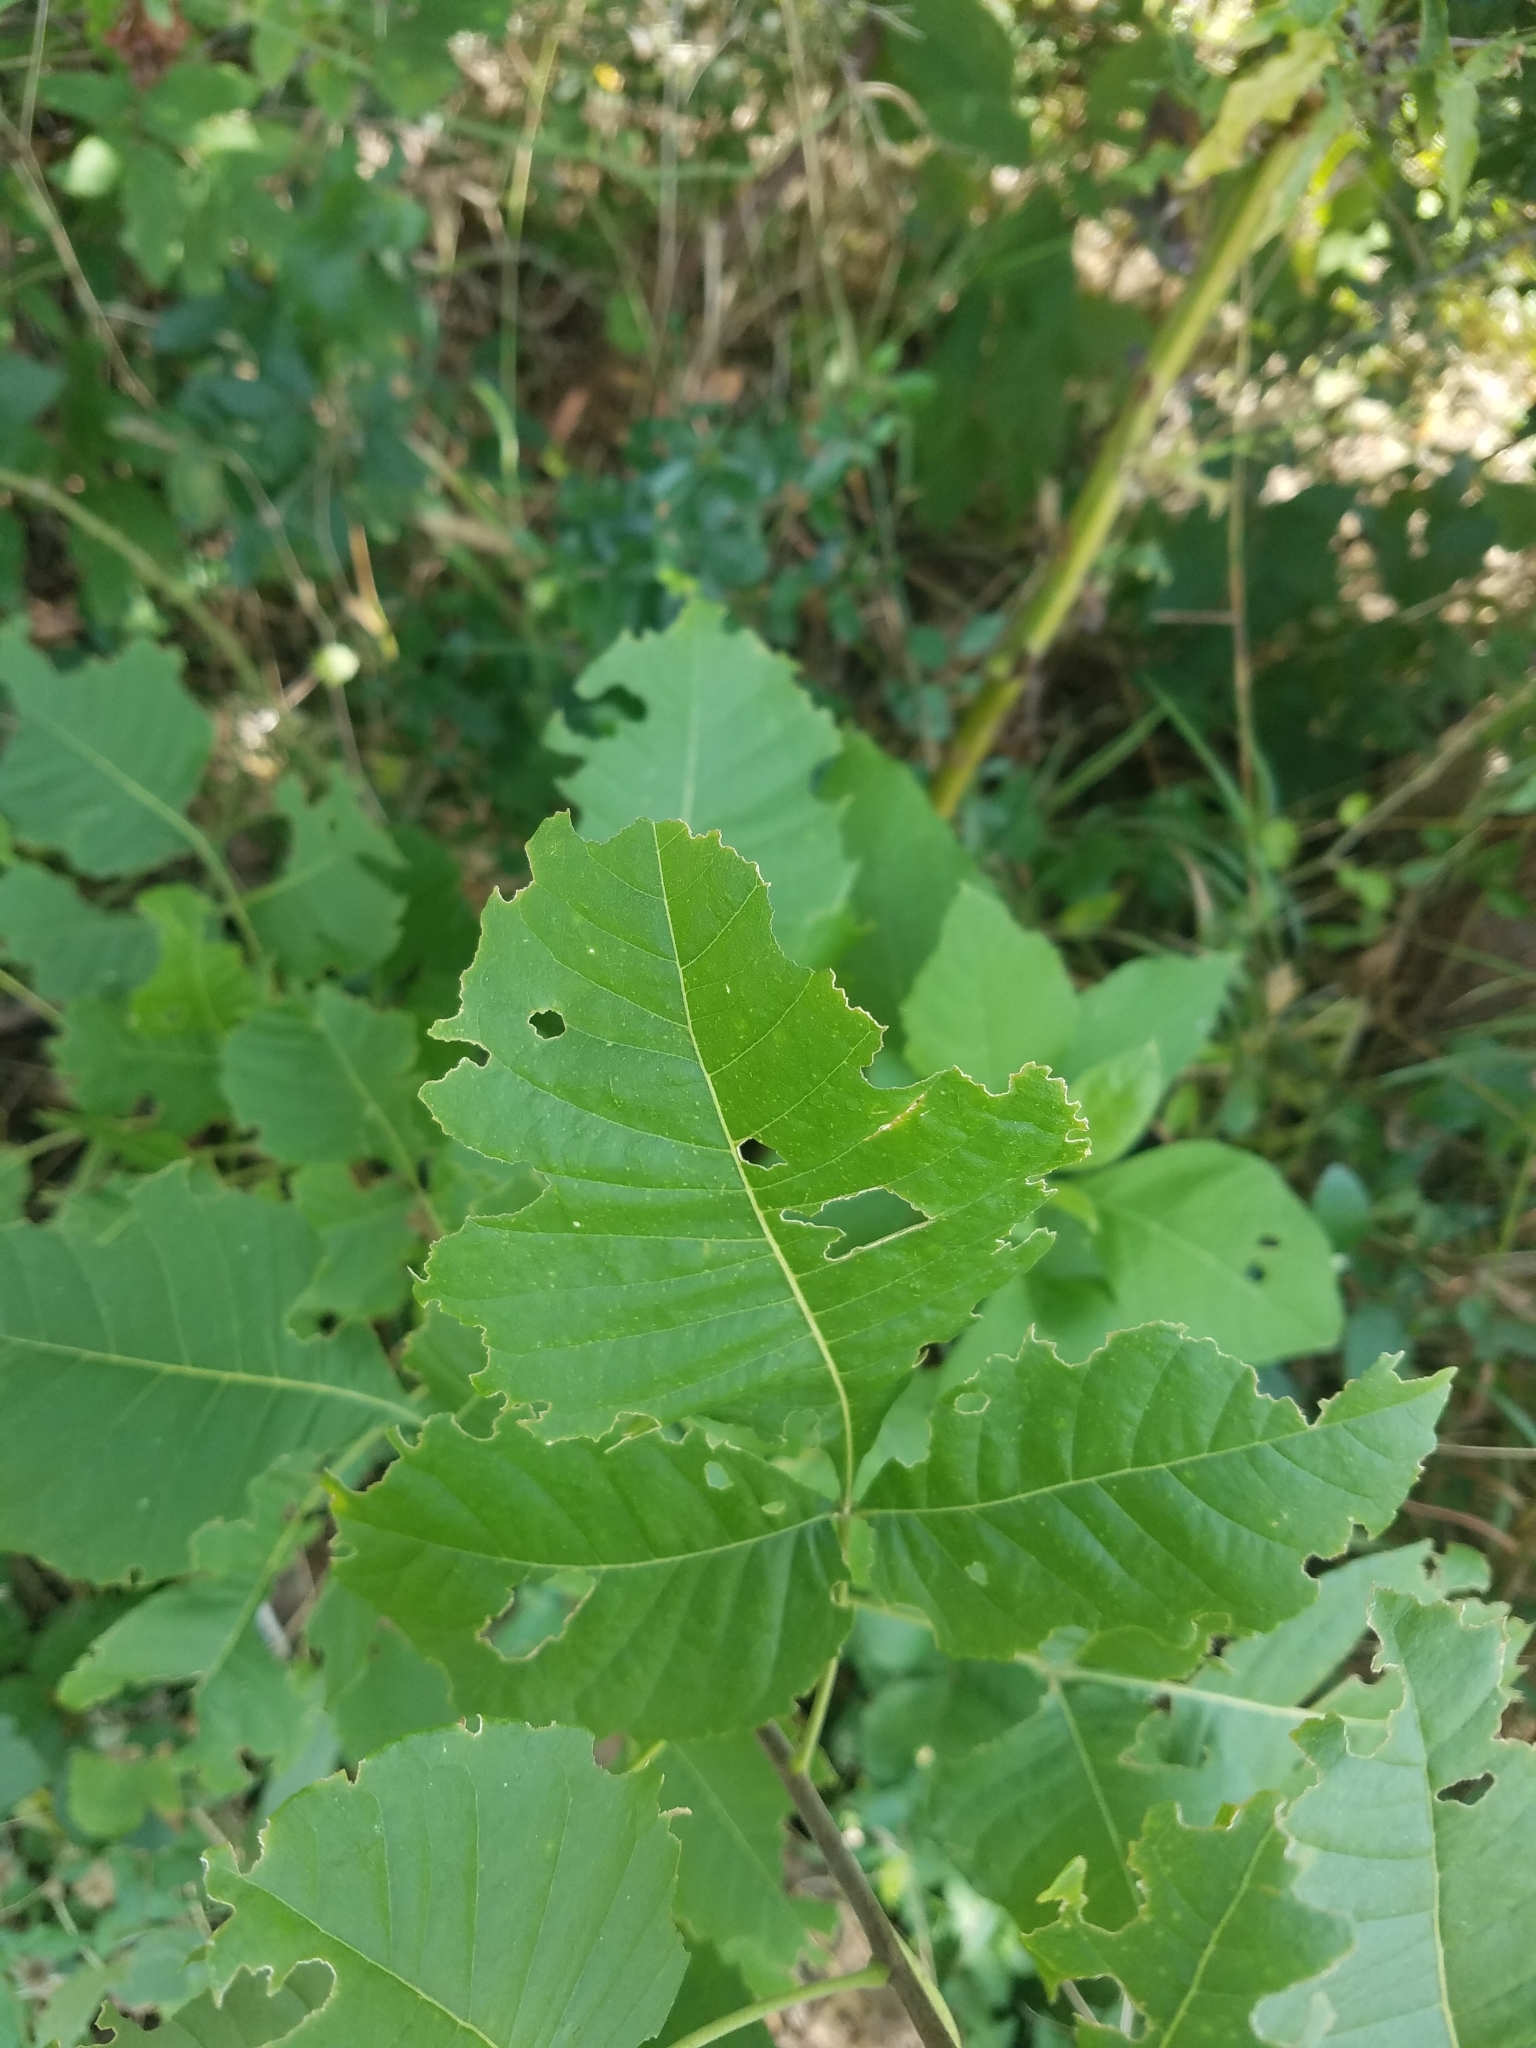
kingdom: Plantae
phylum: Tracheophyta
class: Magnoliopsida
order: Sapindales
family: Rutaceae
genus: Ptelea
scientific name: Ptelea trifoliata
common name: Common hop-tree
